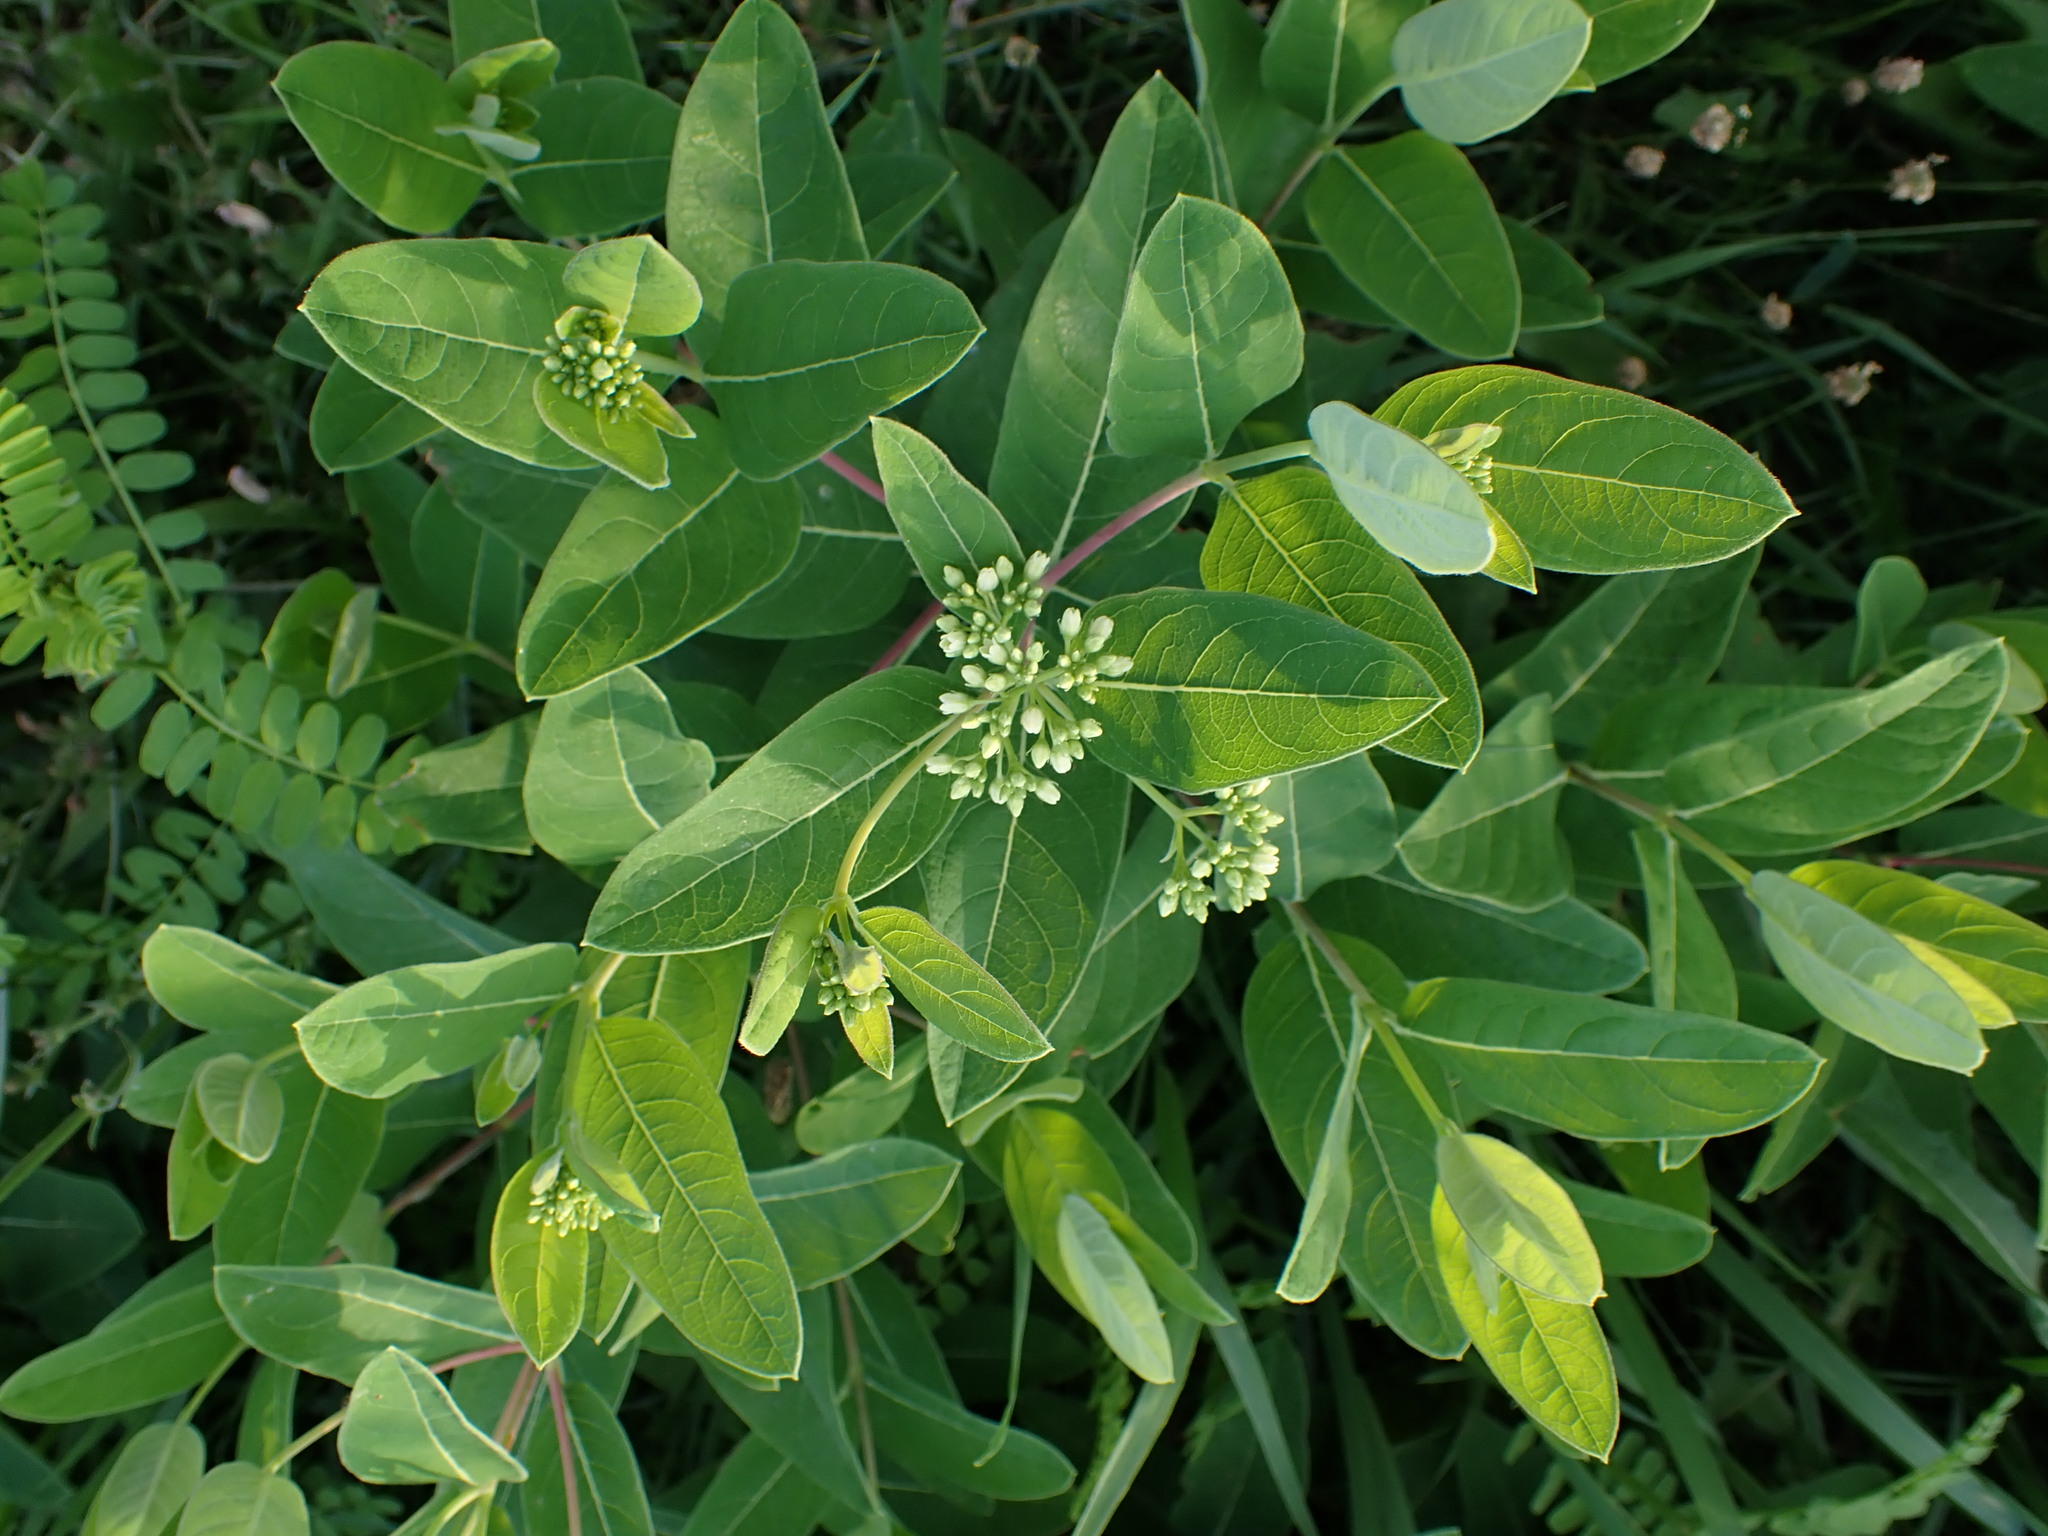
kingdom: Plantae
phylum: Tracheophyta
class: Magnoliopsida
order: Gentianales
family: Apocynaceae
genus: Apocynum
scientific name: Apocynum cannabinum
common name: Hemp dogbane
